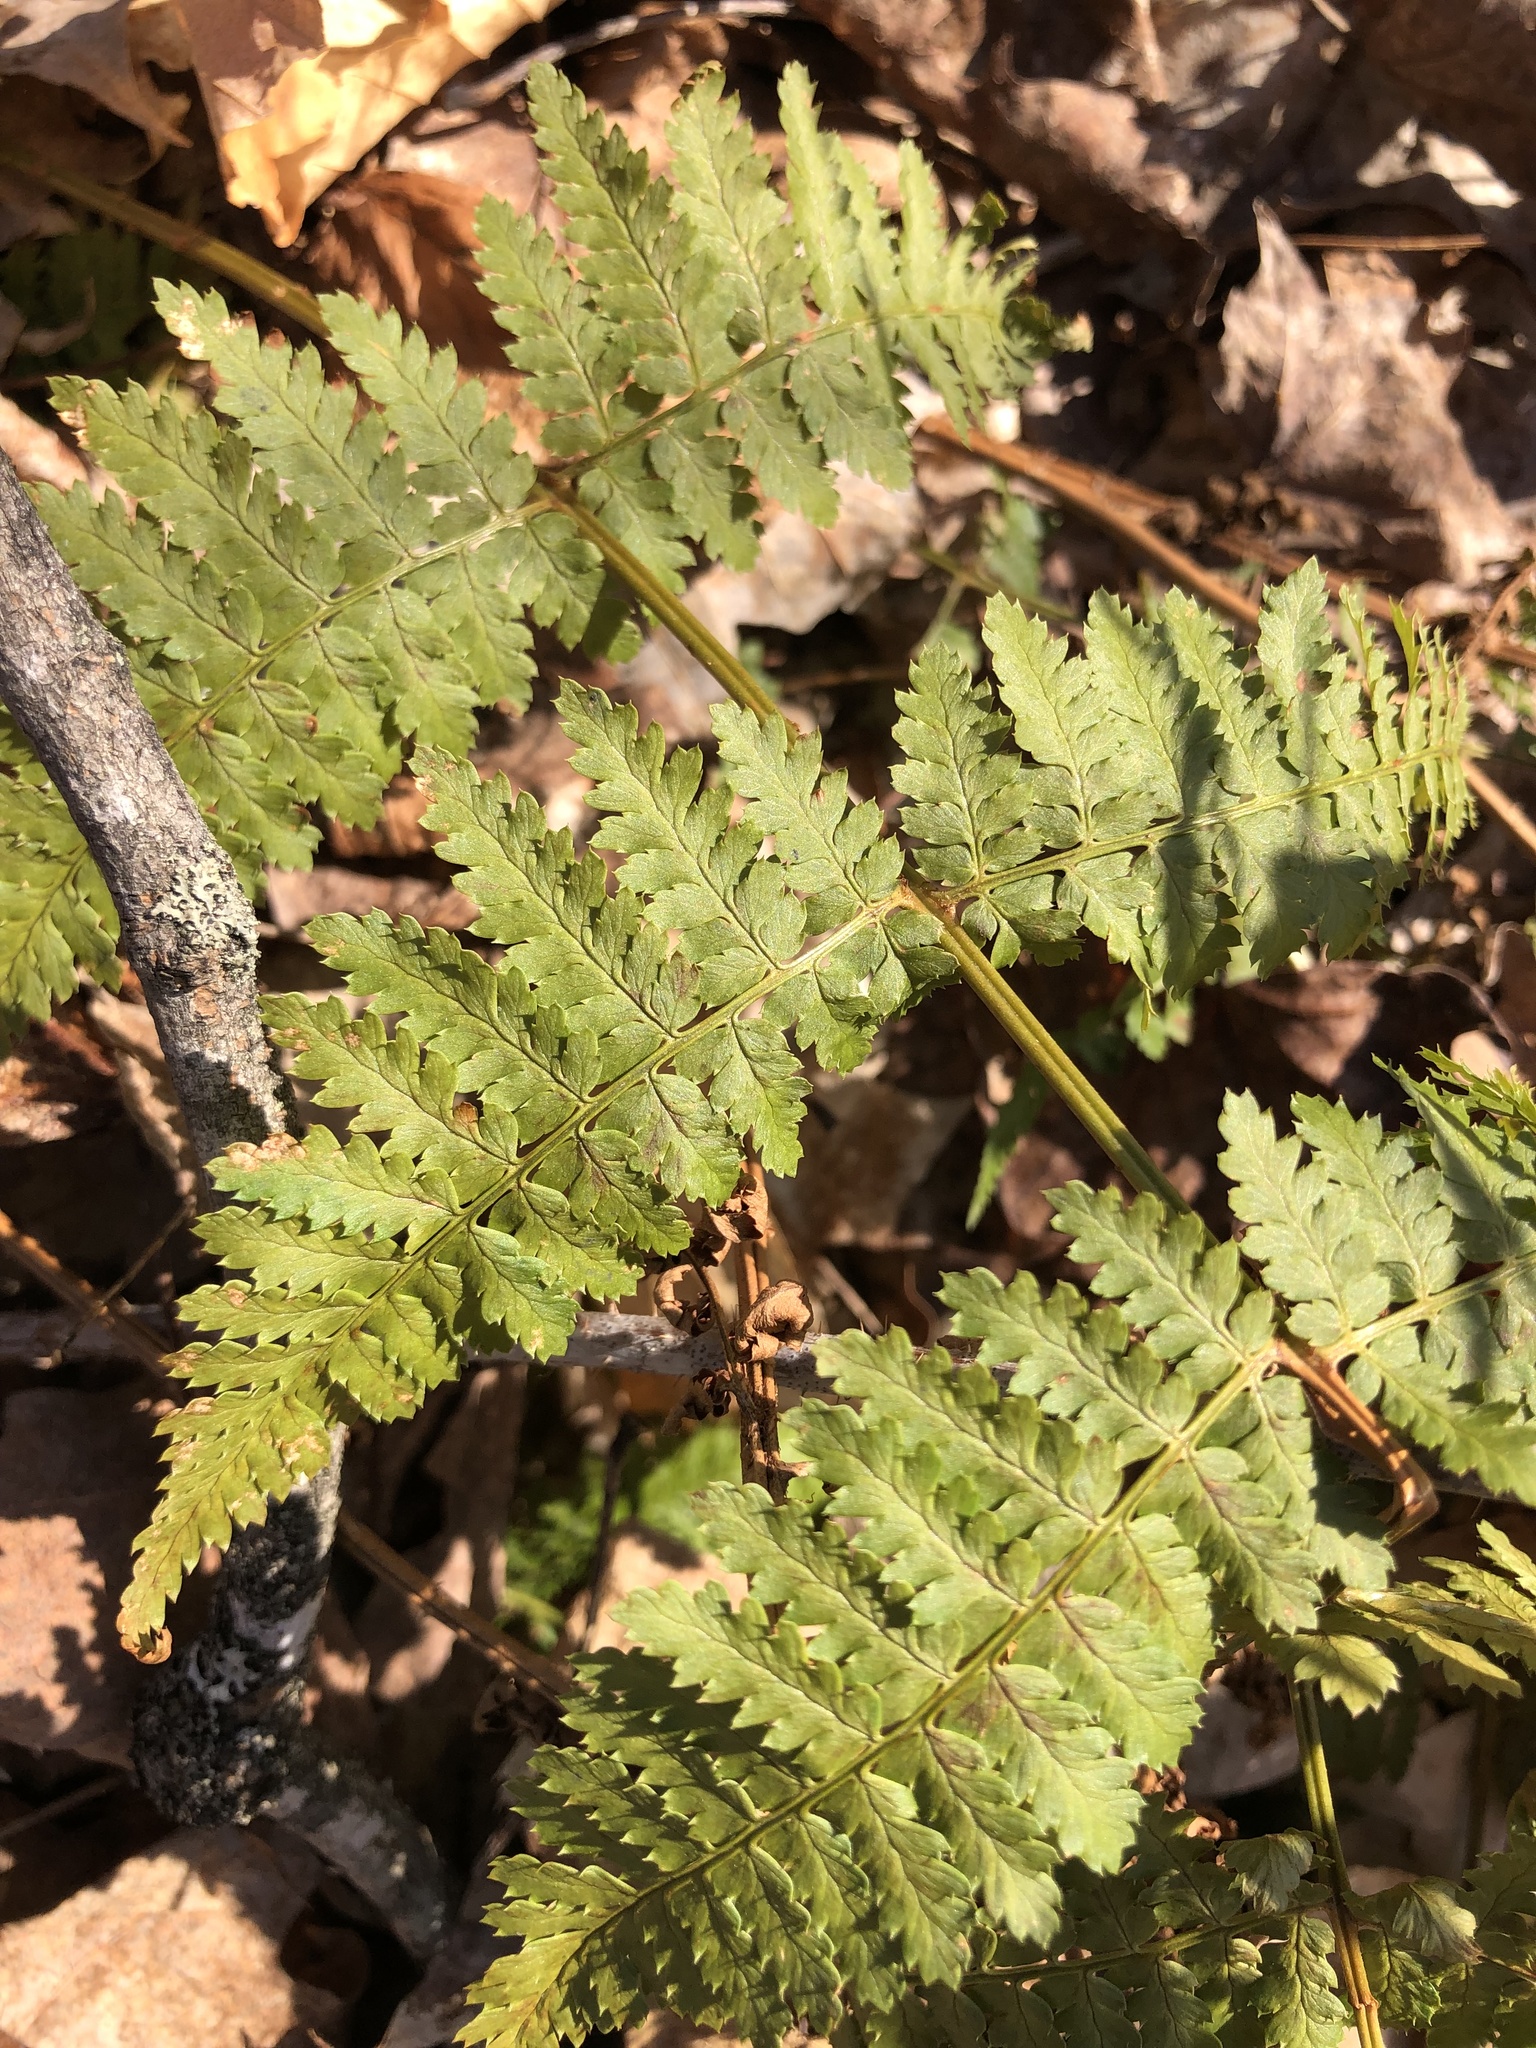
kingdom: Plantae
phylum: Tracheophyta
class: Polypodiopsida
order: Polypodiales
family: Dryopteridaceae
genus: Dryopteris
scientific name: Dryopteris intermedia
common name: Evergreen wood fern
